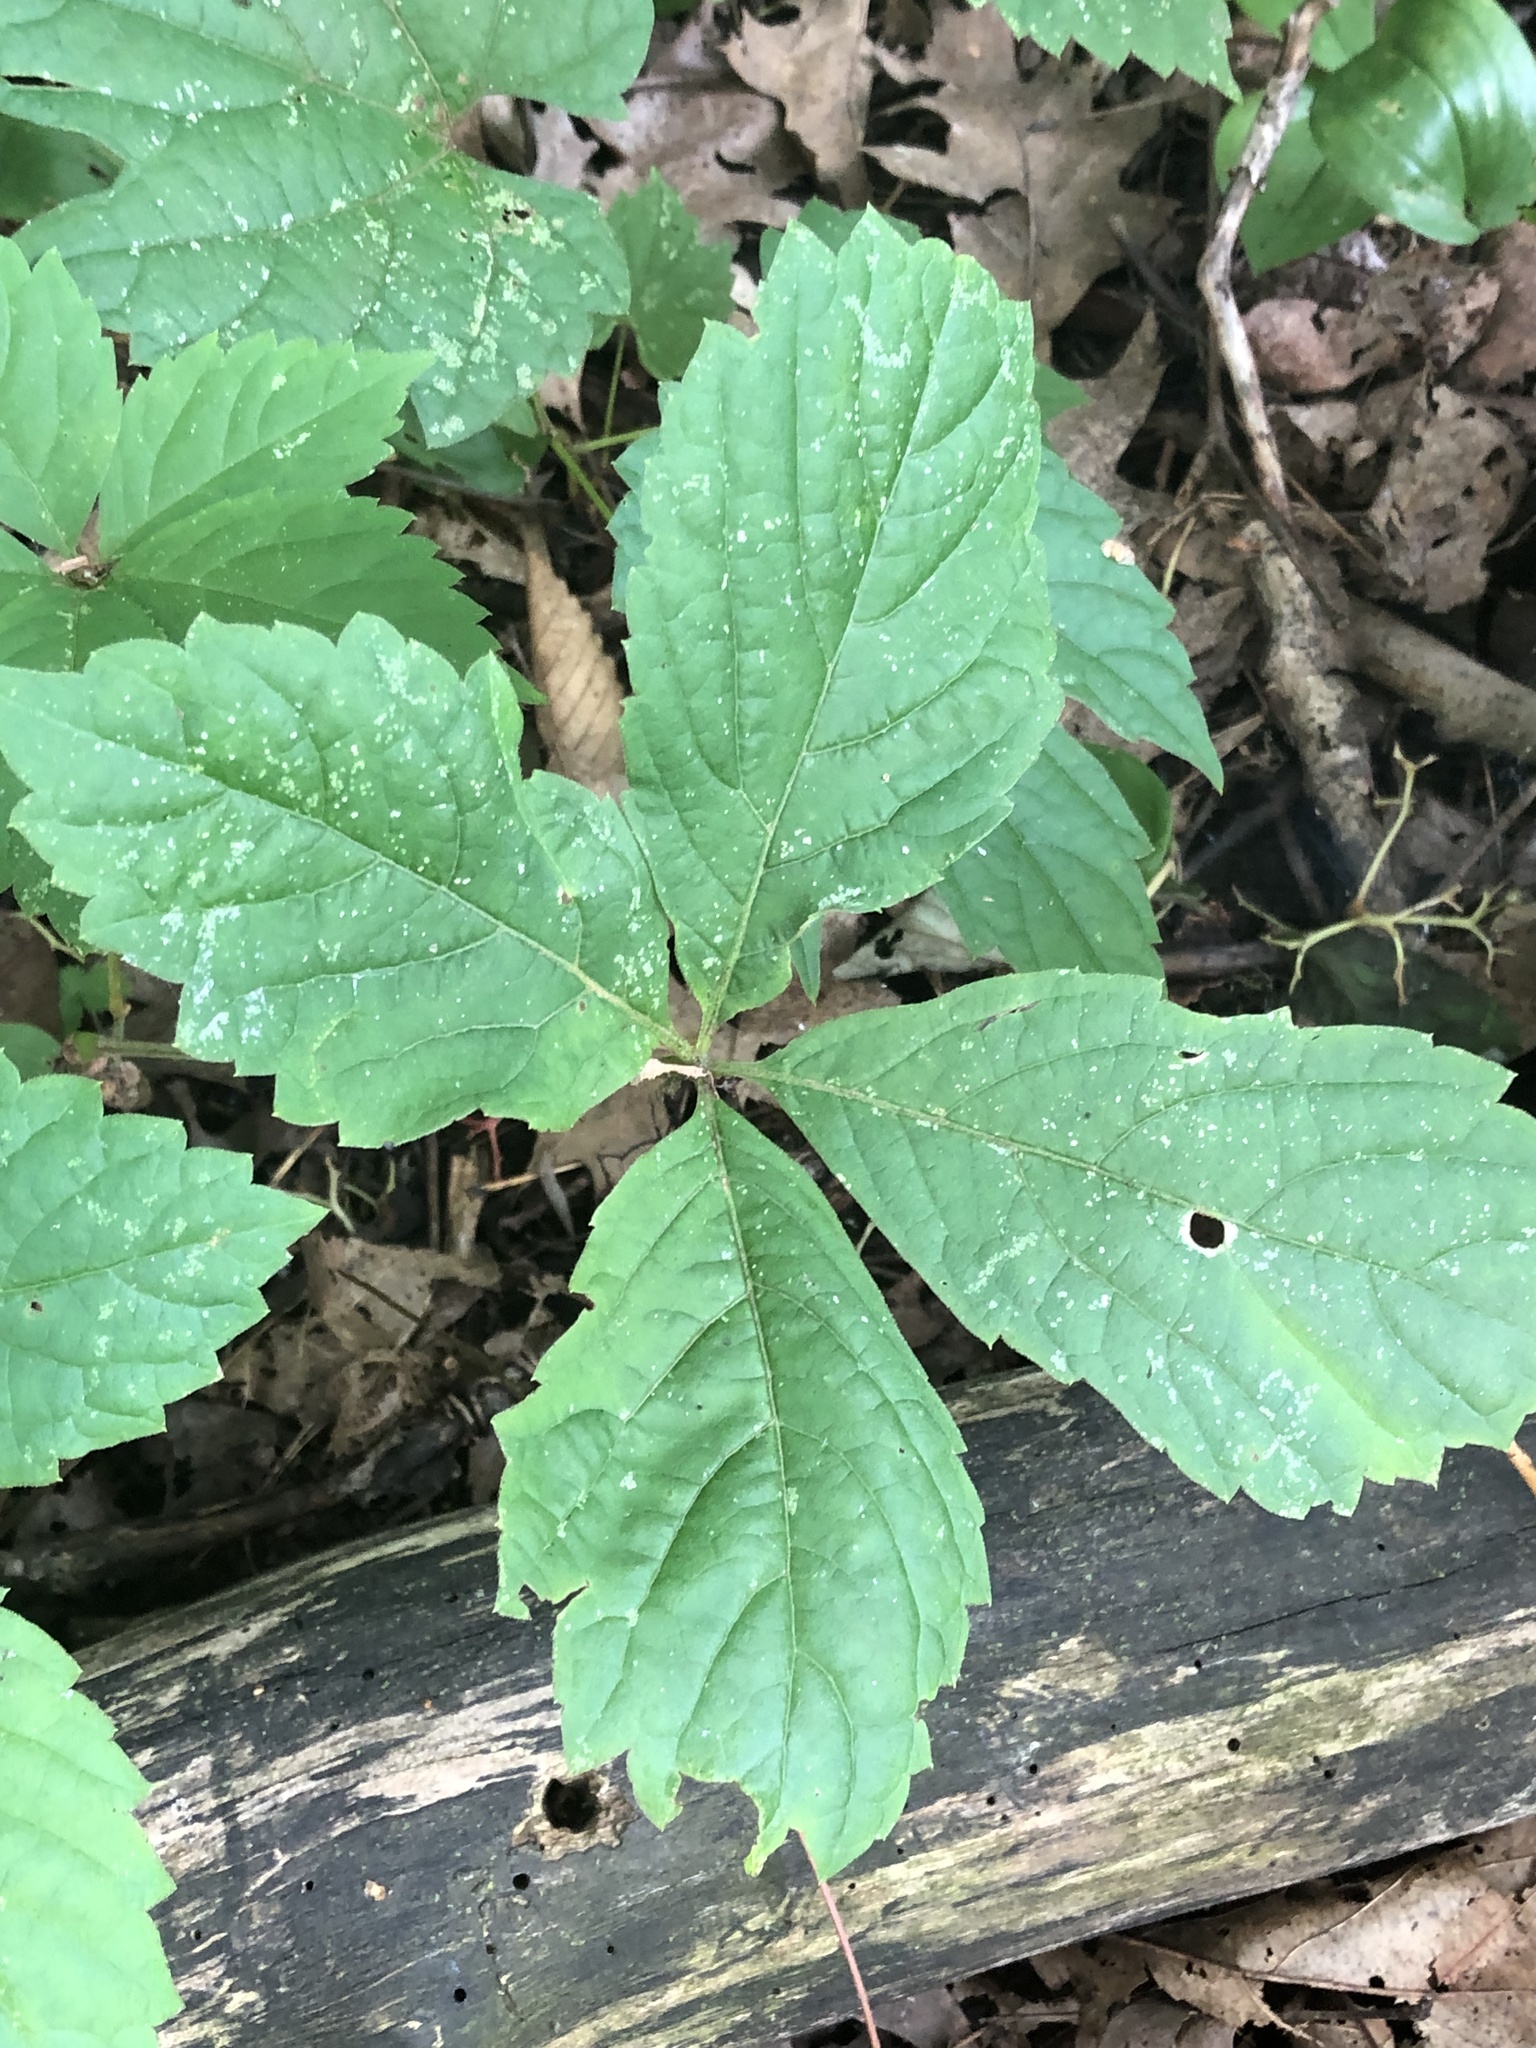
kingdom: Plantae
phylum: Tracheophyta
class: Magnoliopsida
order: Vitales
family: Vitaceae
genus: Parthenocissus
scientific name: Parthenocissus quinquefolia
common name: Virginia-creeper
